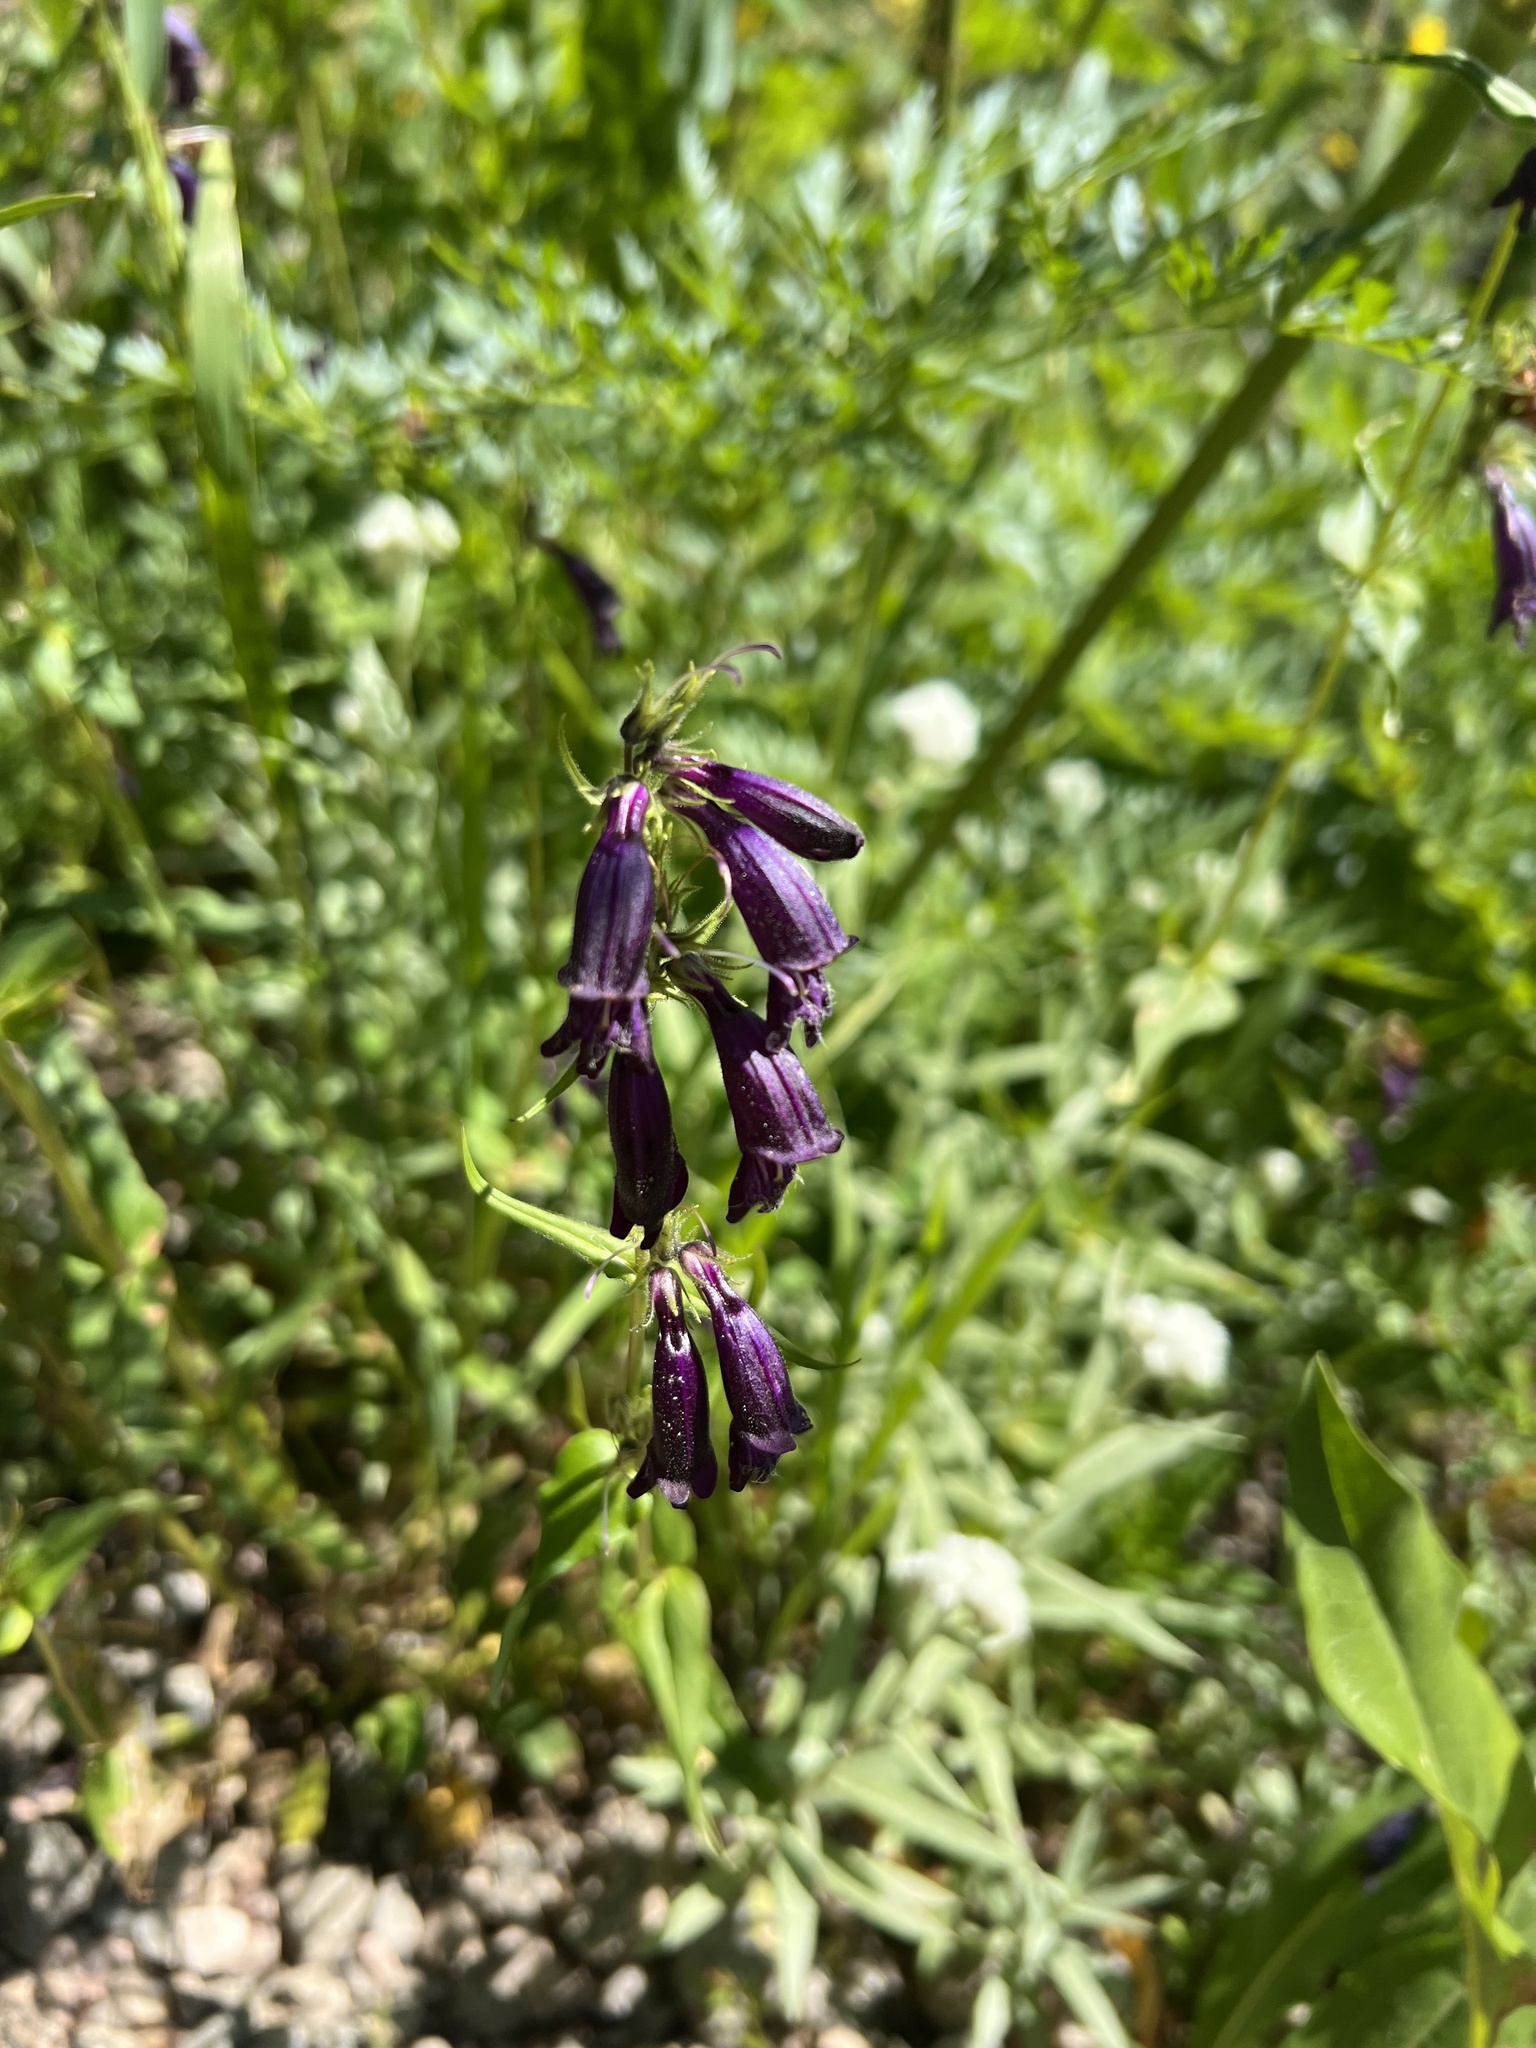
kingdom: Plantae
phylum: Tracheophyta
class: Magnoliopsida
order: Lamiales
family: Plantaginaceae
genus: Penstemon
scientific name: Penstemon whippleanus
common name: Whipple's penstemon
